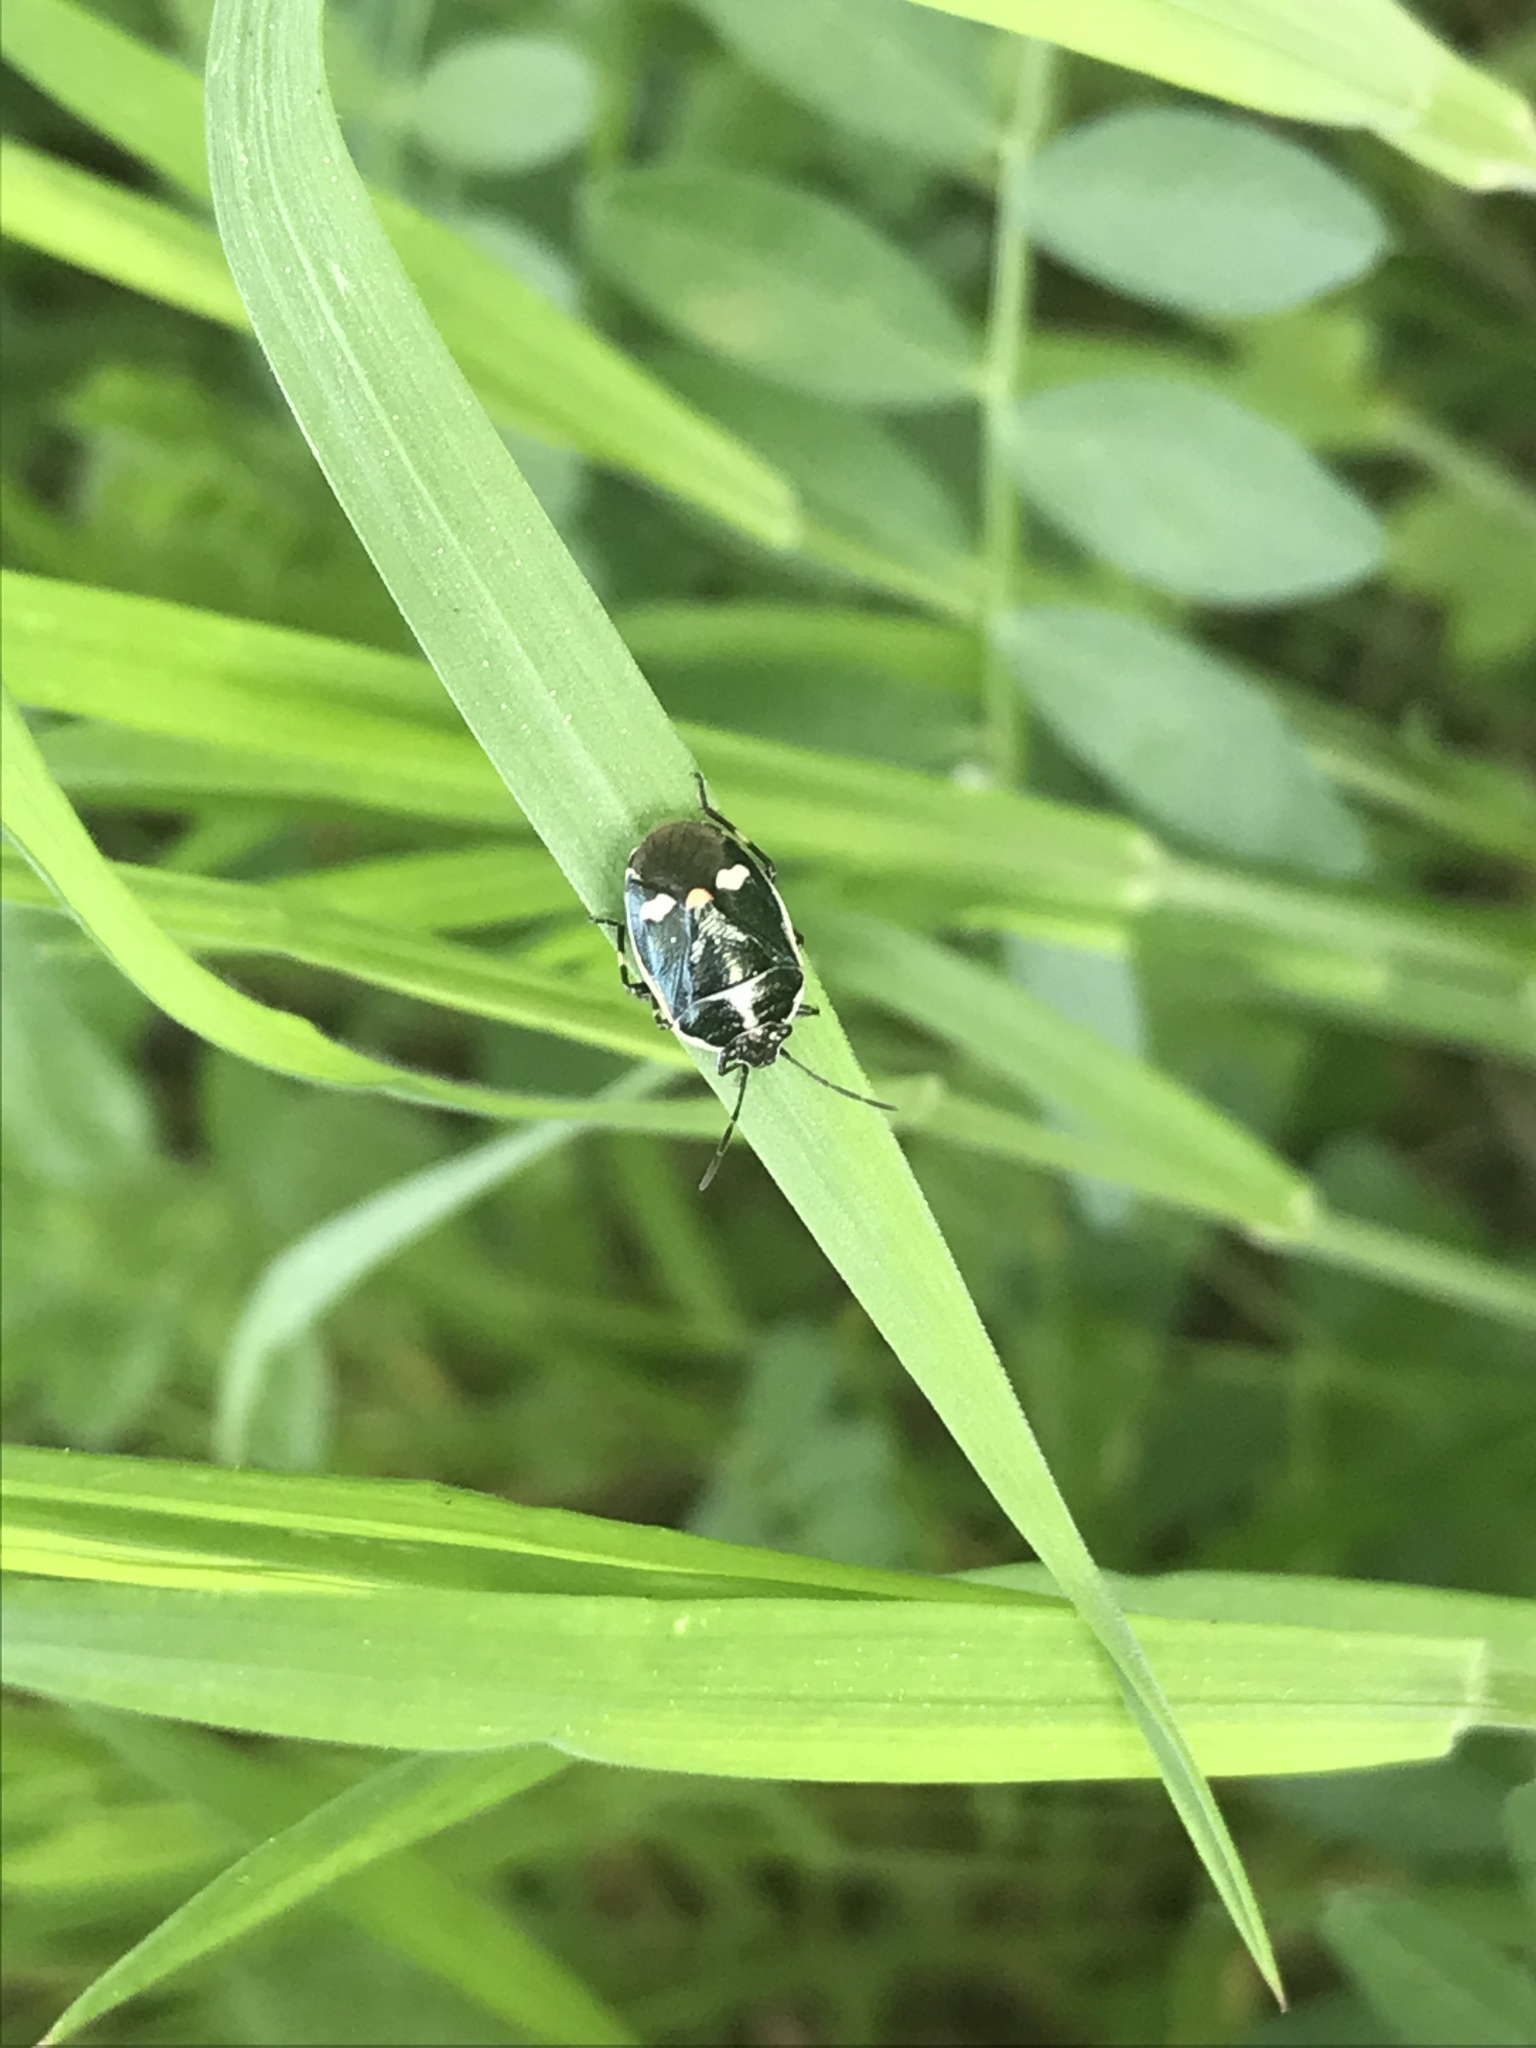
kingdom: Animalia
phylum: Arthropoda
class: Insecta
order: Hemiptera
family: Pentatomidae
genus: Eurydema
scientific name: Eurydema oleracea
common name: Cabbage bug
